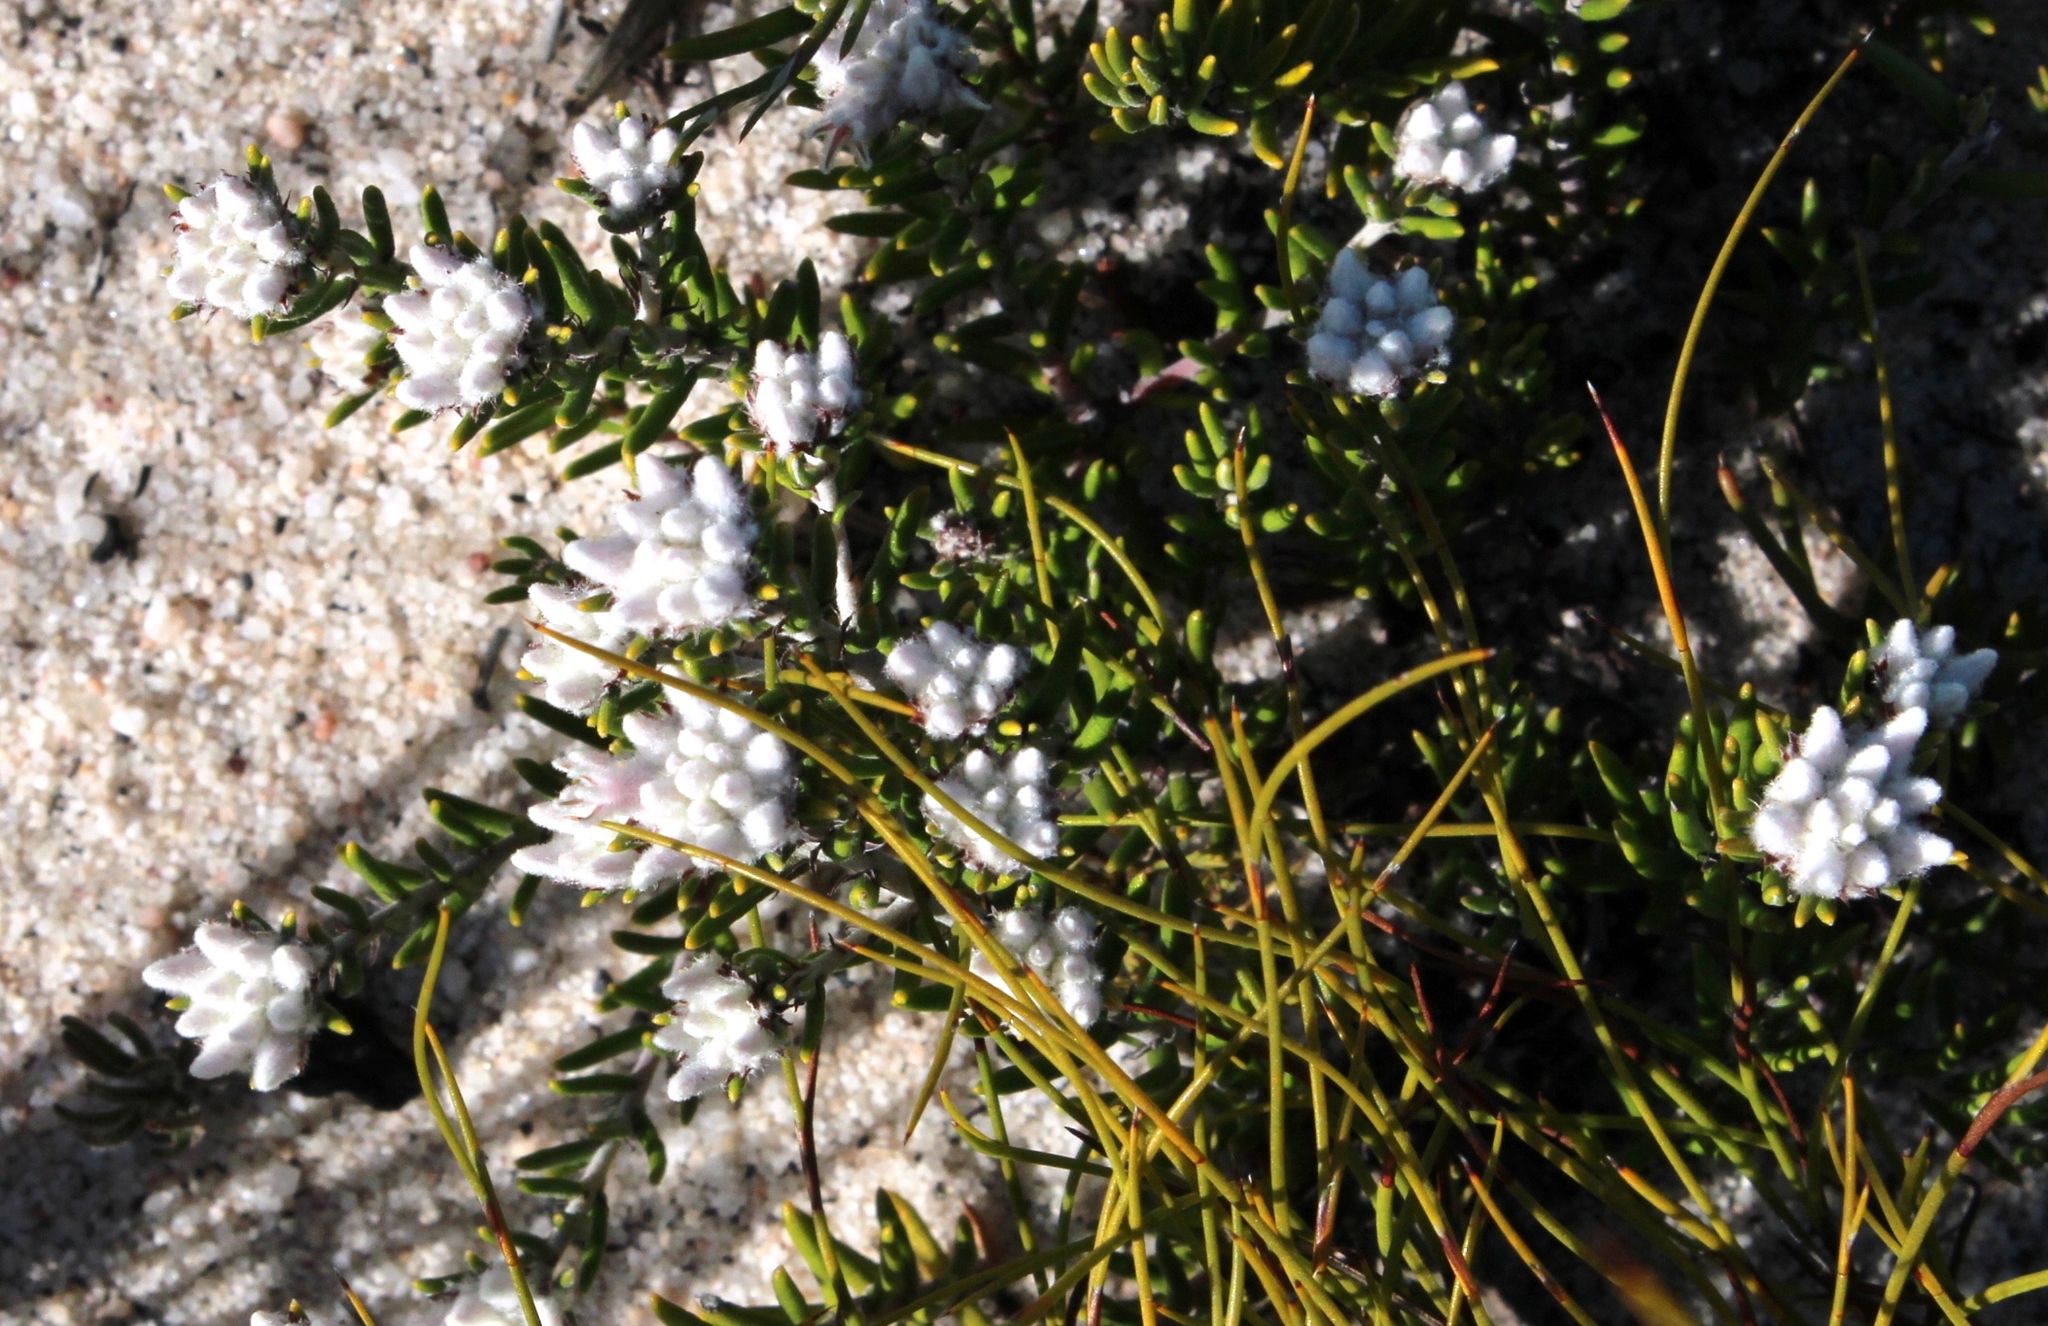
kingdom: Plantae
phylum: Tracheophyta
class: Magnoliopsida
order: Rosales
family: Rhamnaceae
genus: Trichocephalus
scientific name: Trichocephalus stipularis
